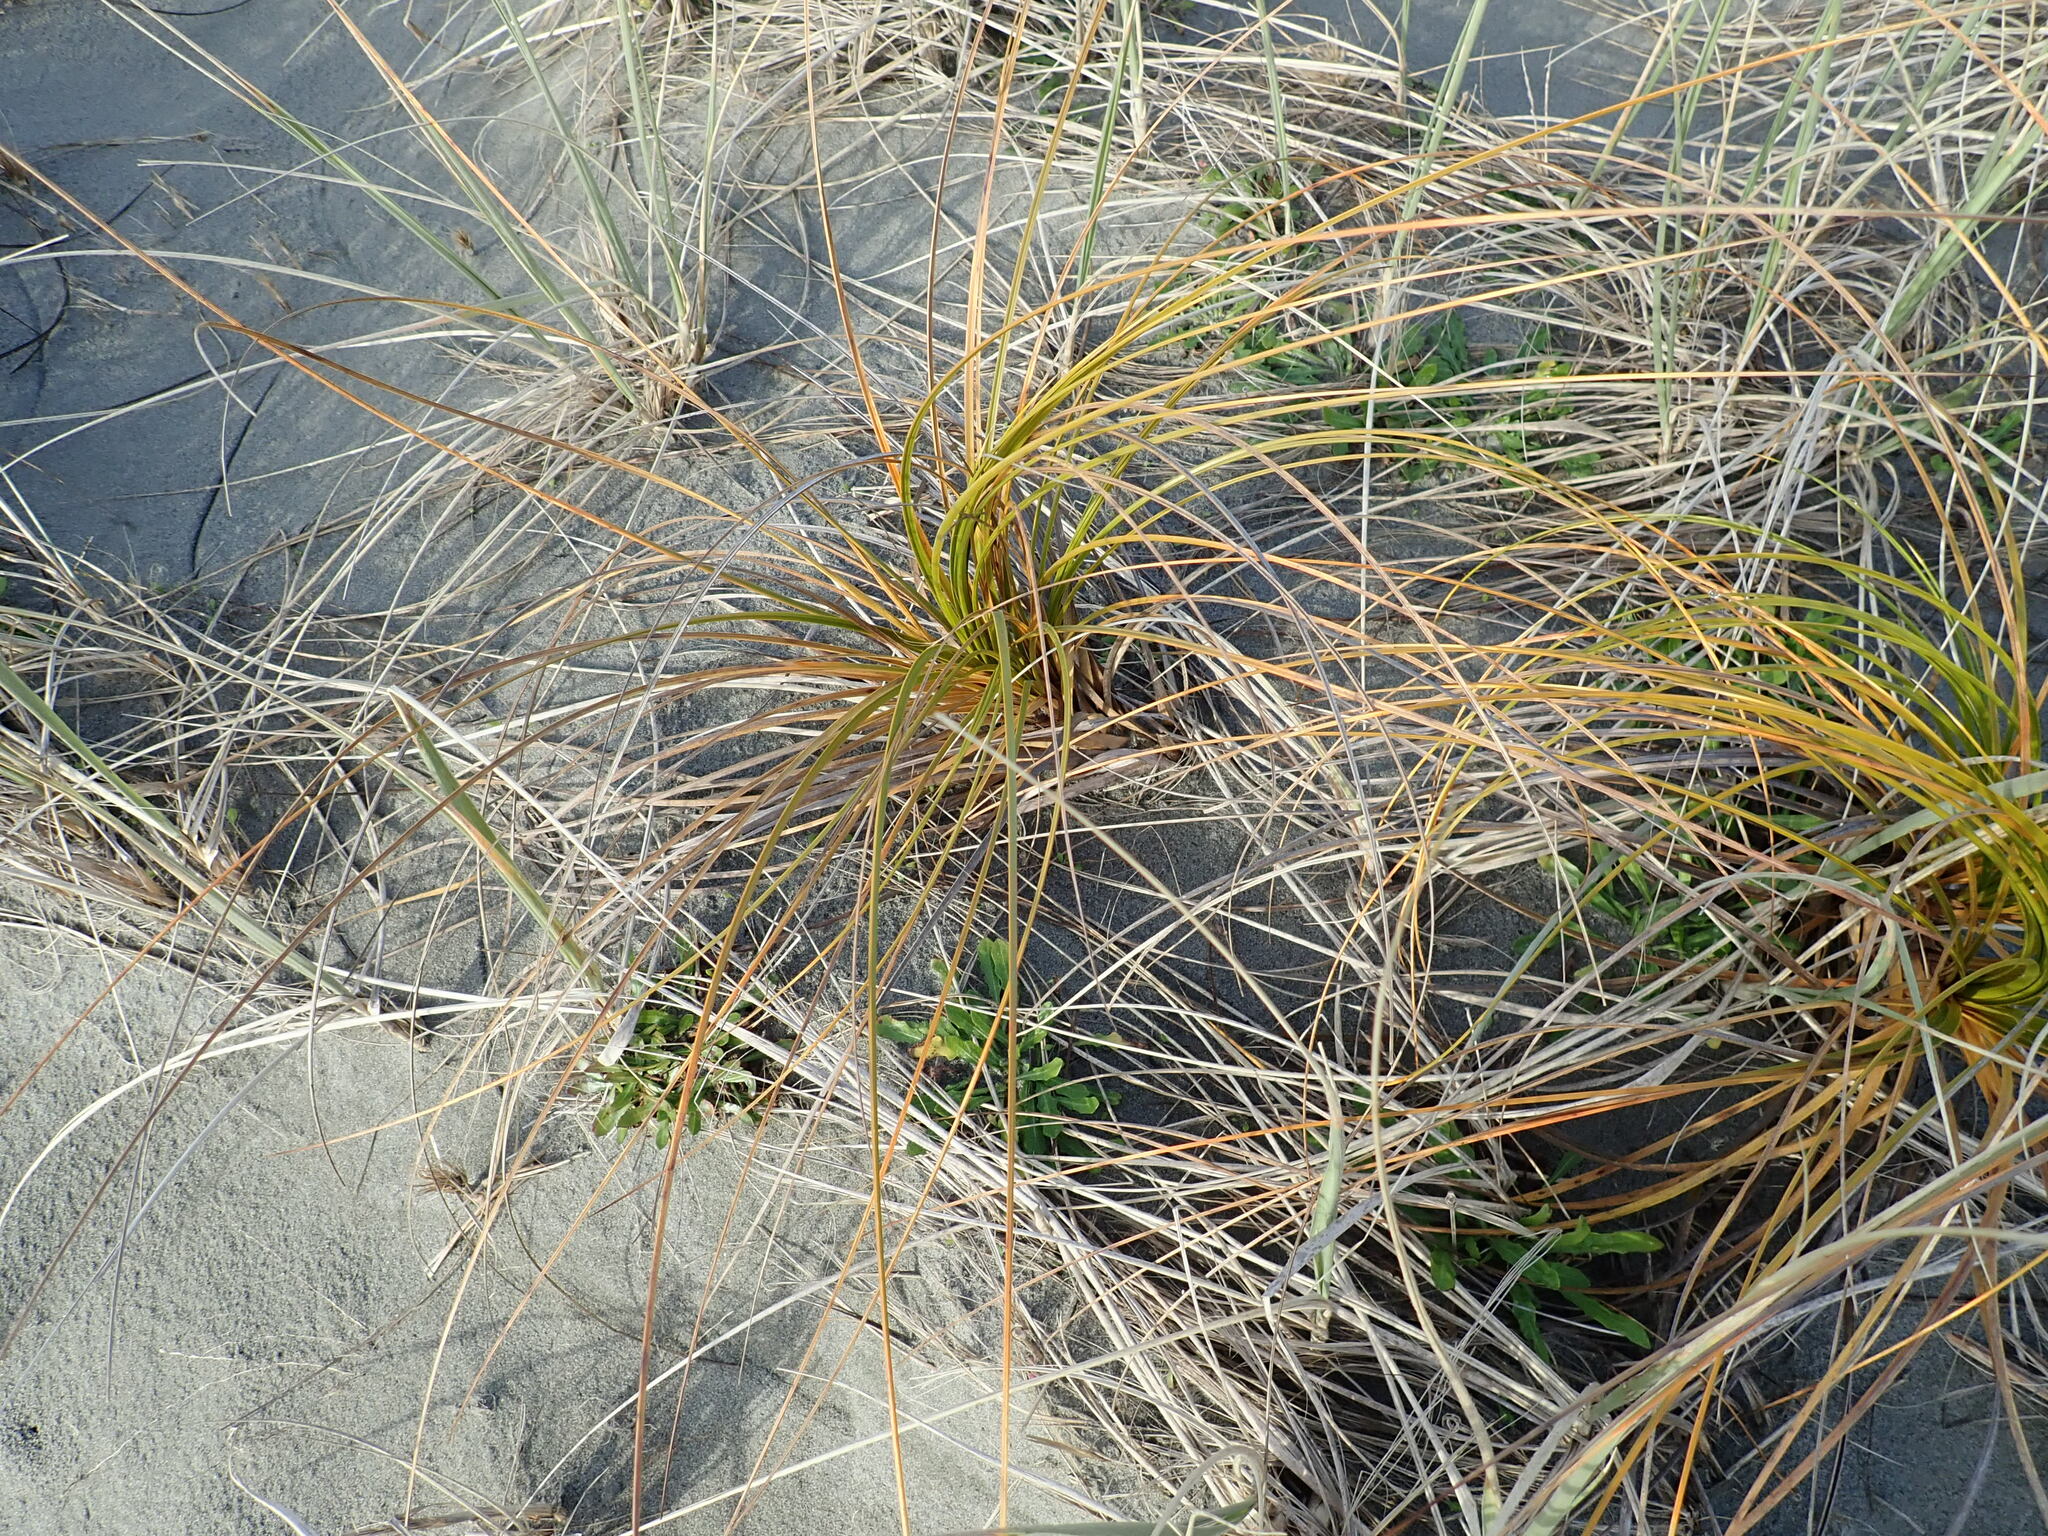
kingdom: Plantae
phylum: Tracheophyta
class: Liliopsida
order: Poales
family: Cyperaceae
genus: Ficinia
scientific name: Ficinia spiralis
